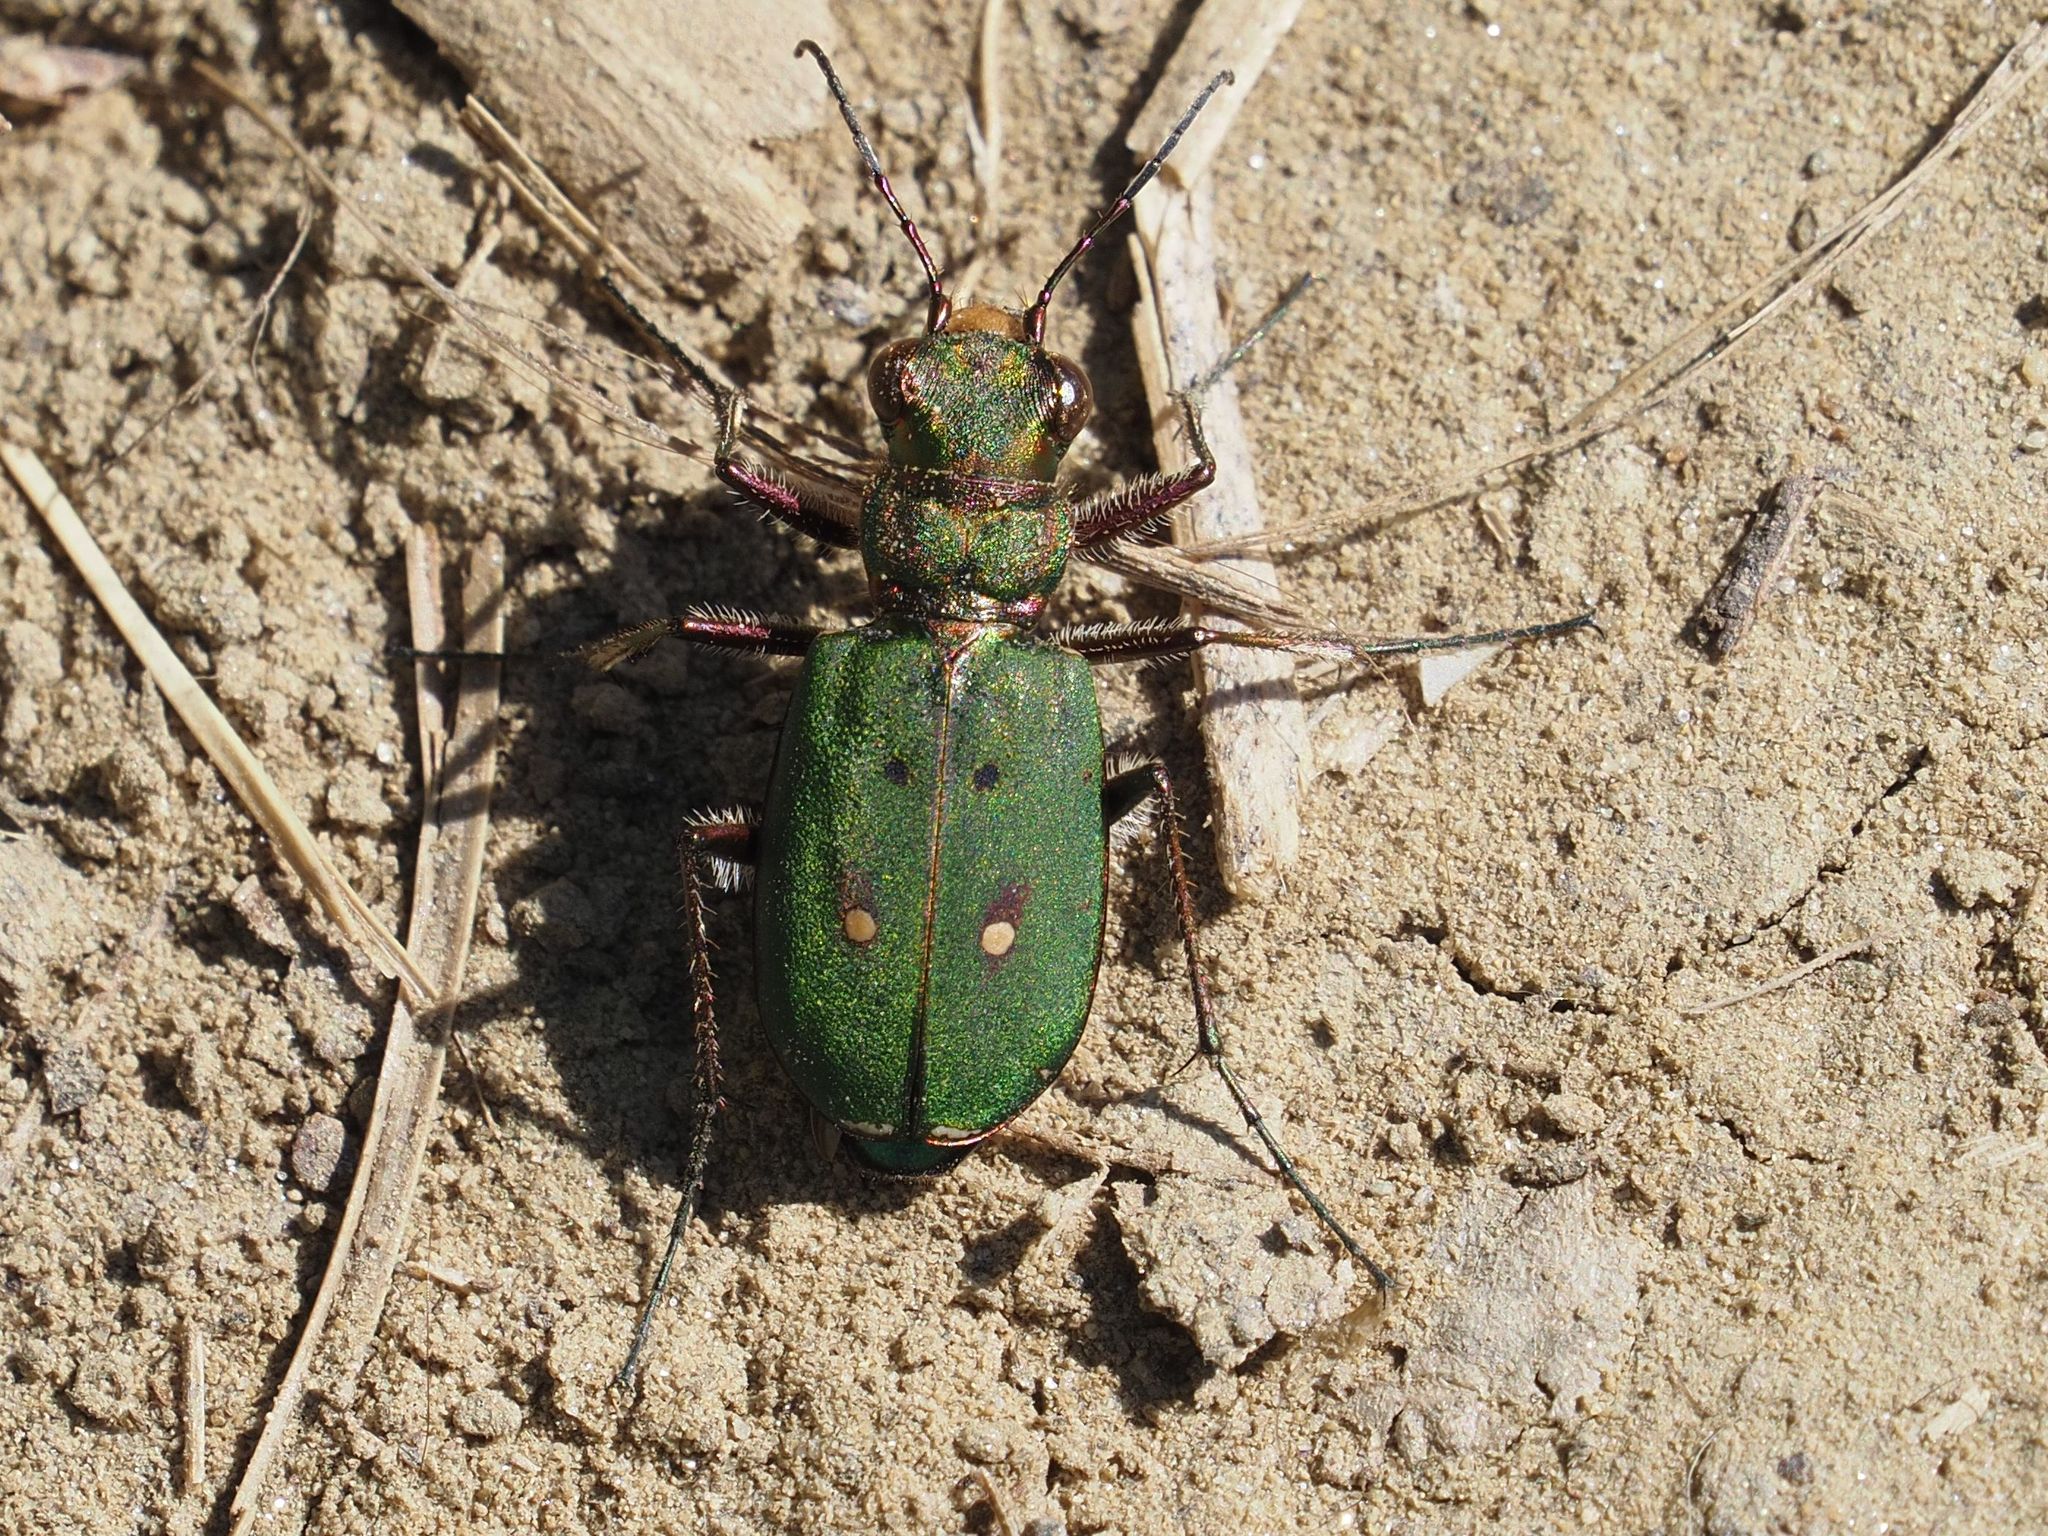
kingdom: Animalia
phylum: Arthropoda
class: Insecta
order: Coleoptera
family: Carabidae
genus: Cicindela
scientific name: Cicindela campestris
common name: Common tiger beetle
